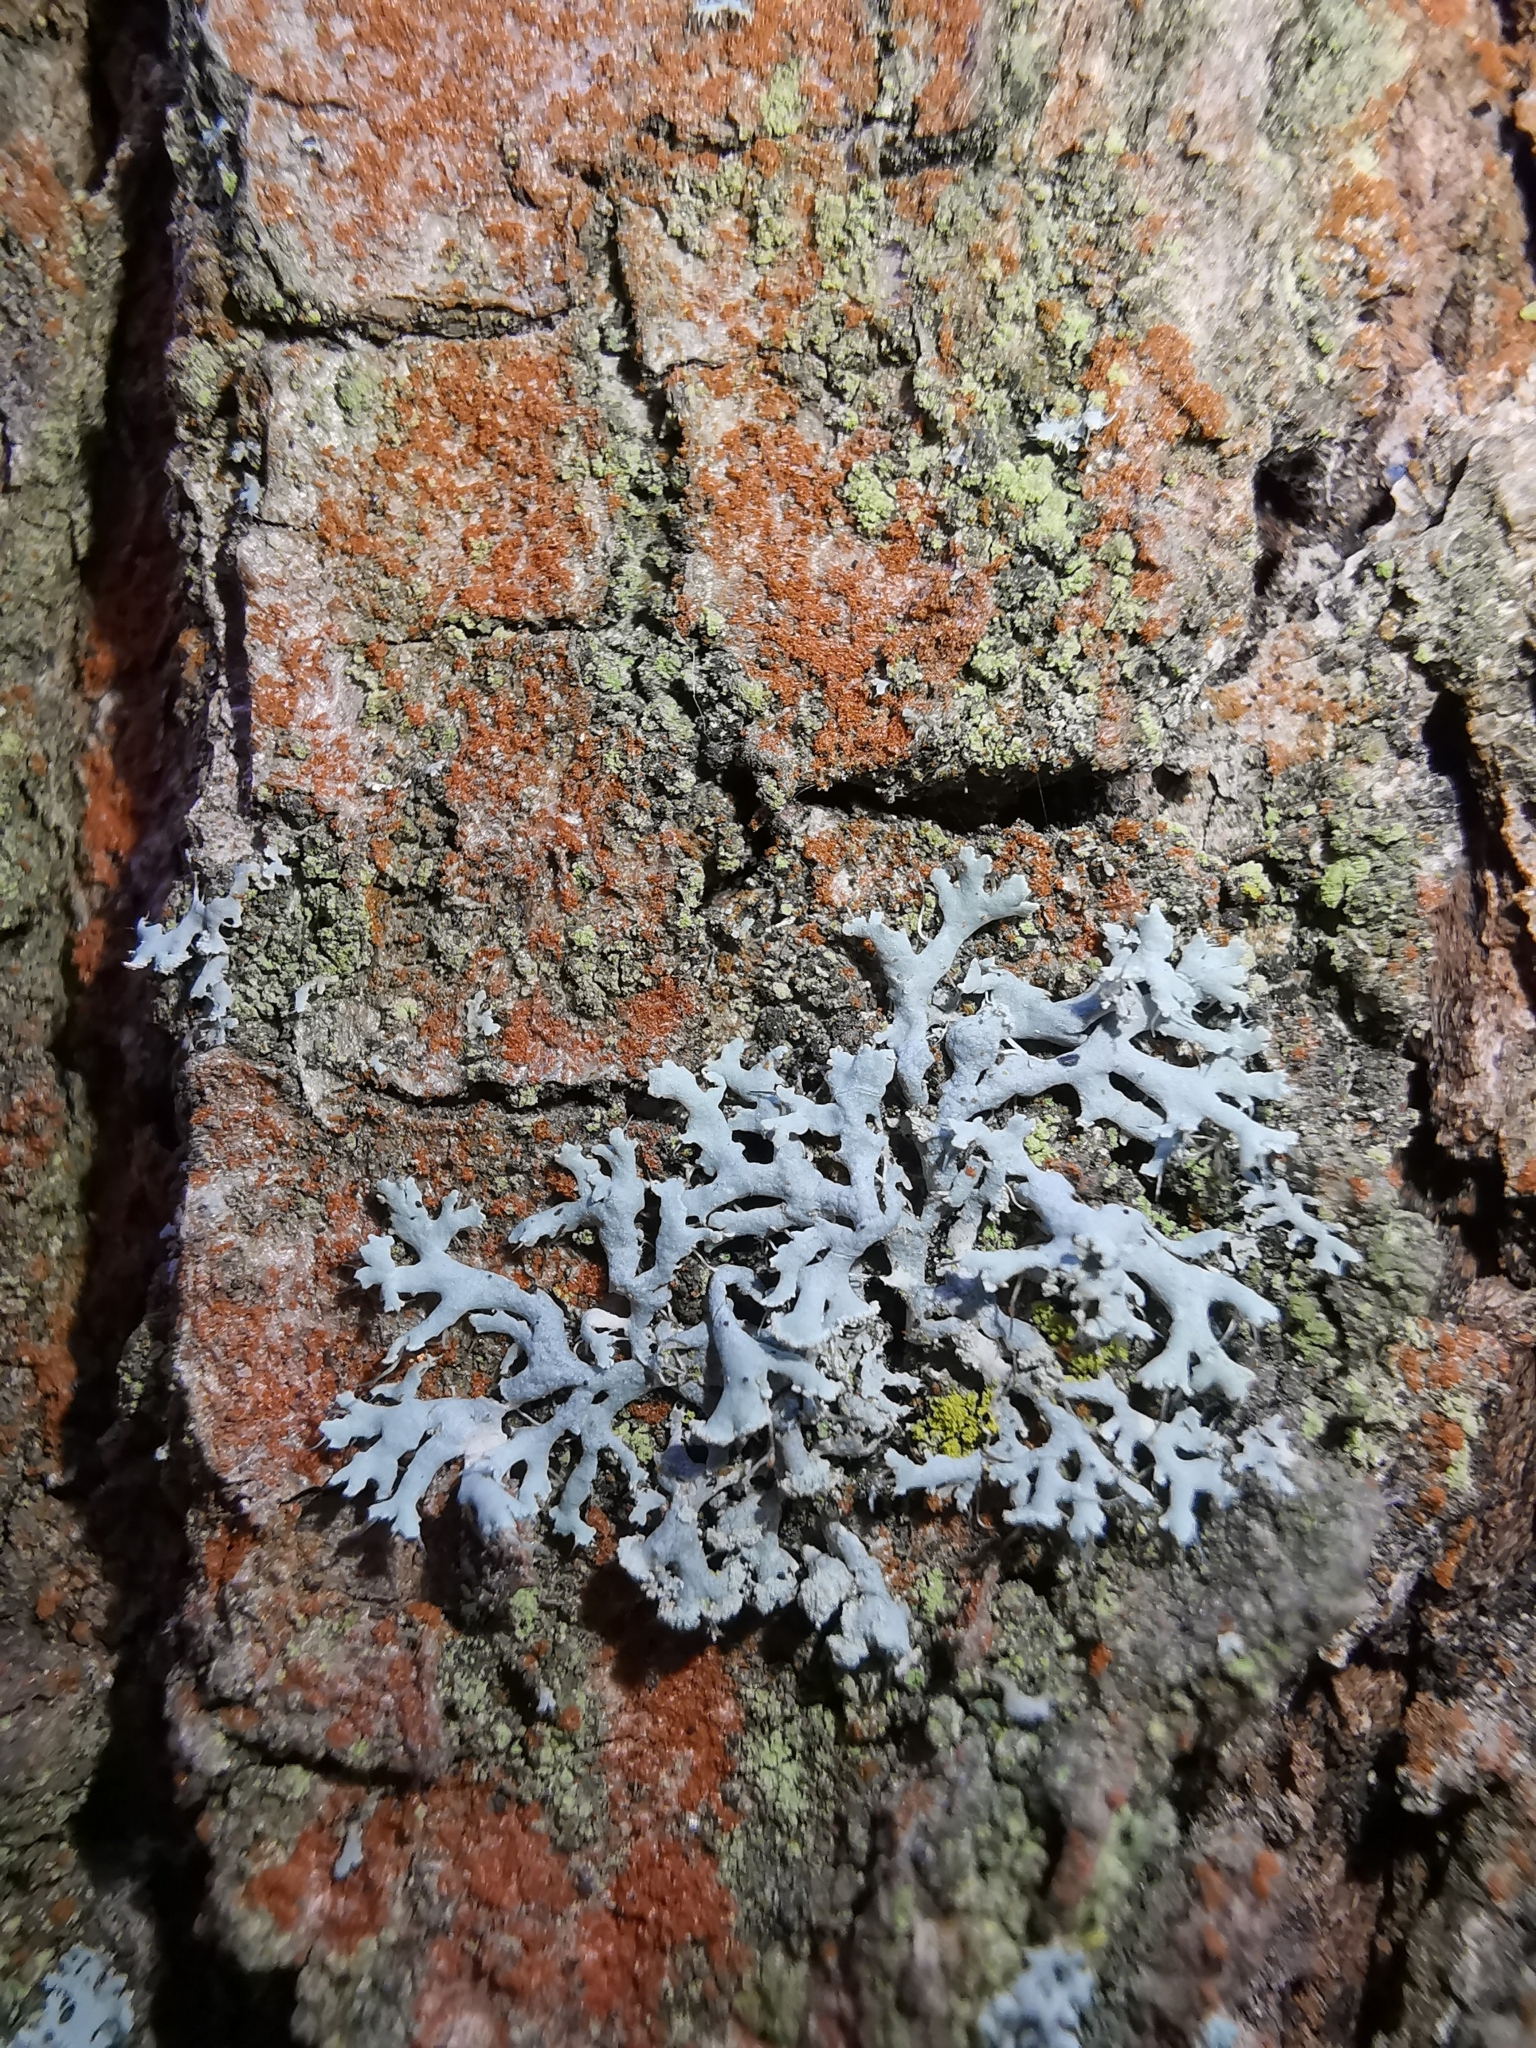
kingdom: Fungi
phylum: Ascomycota
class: Lecanoromycetes
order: Caliciales
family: Physciaceae
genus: Physcia
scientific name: Physcia tenella
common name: Fringed rosette lichen
